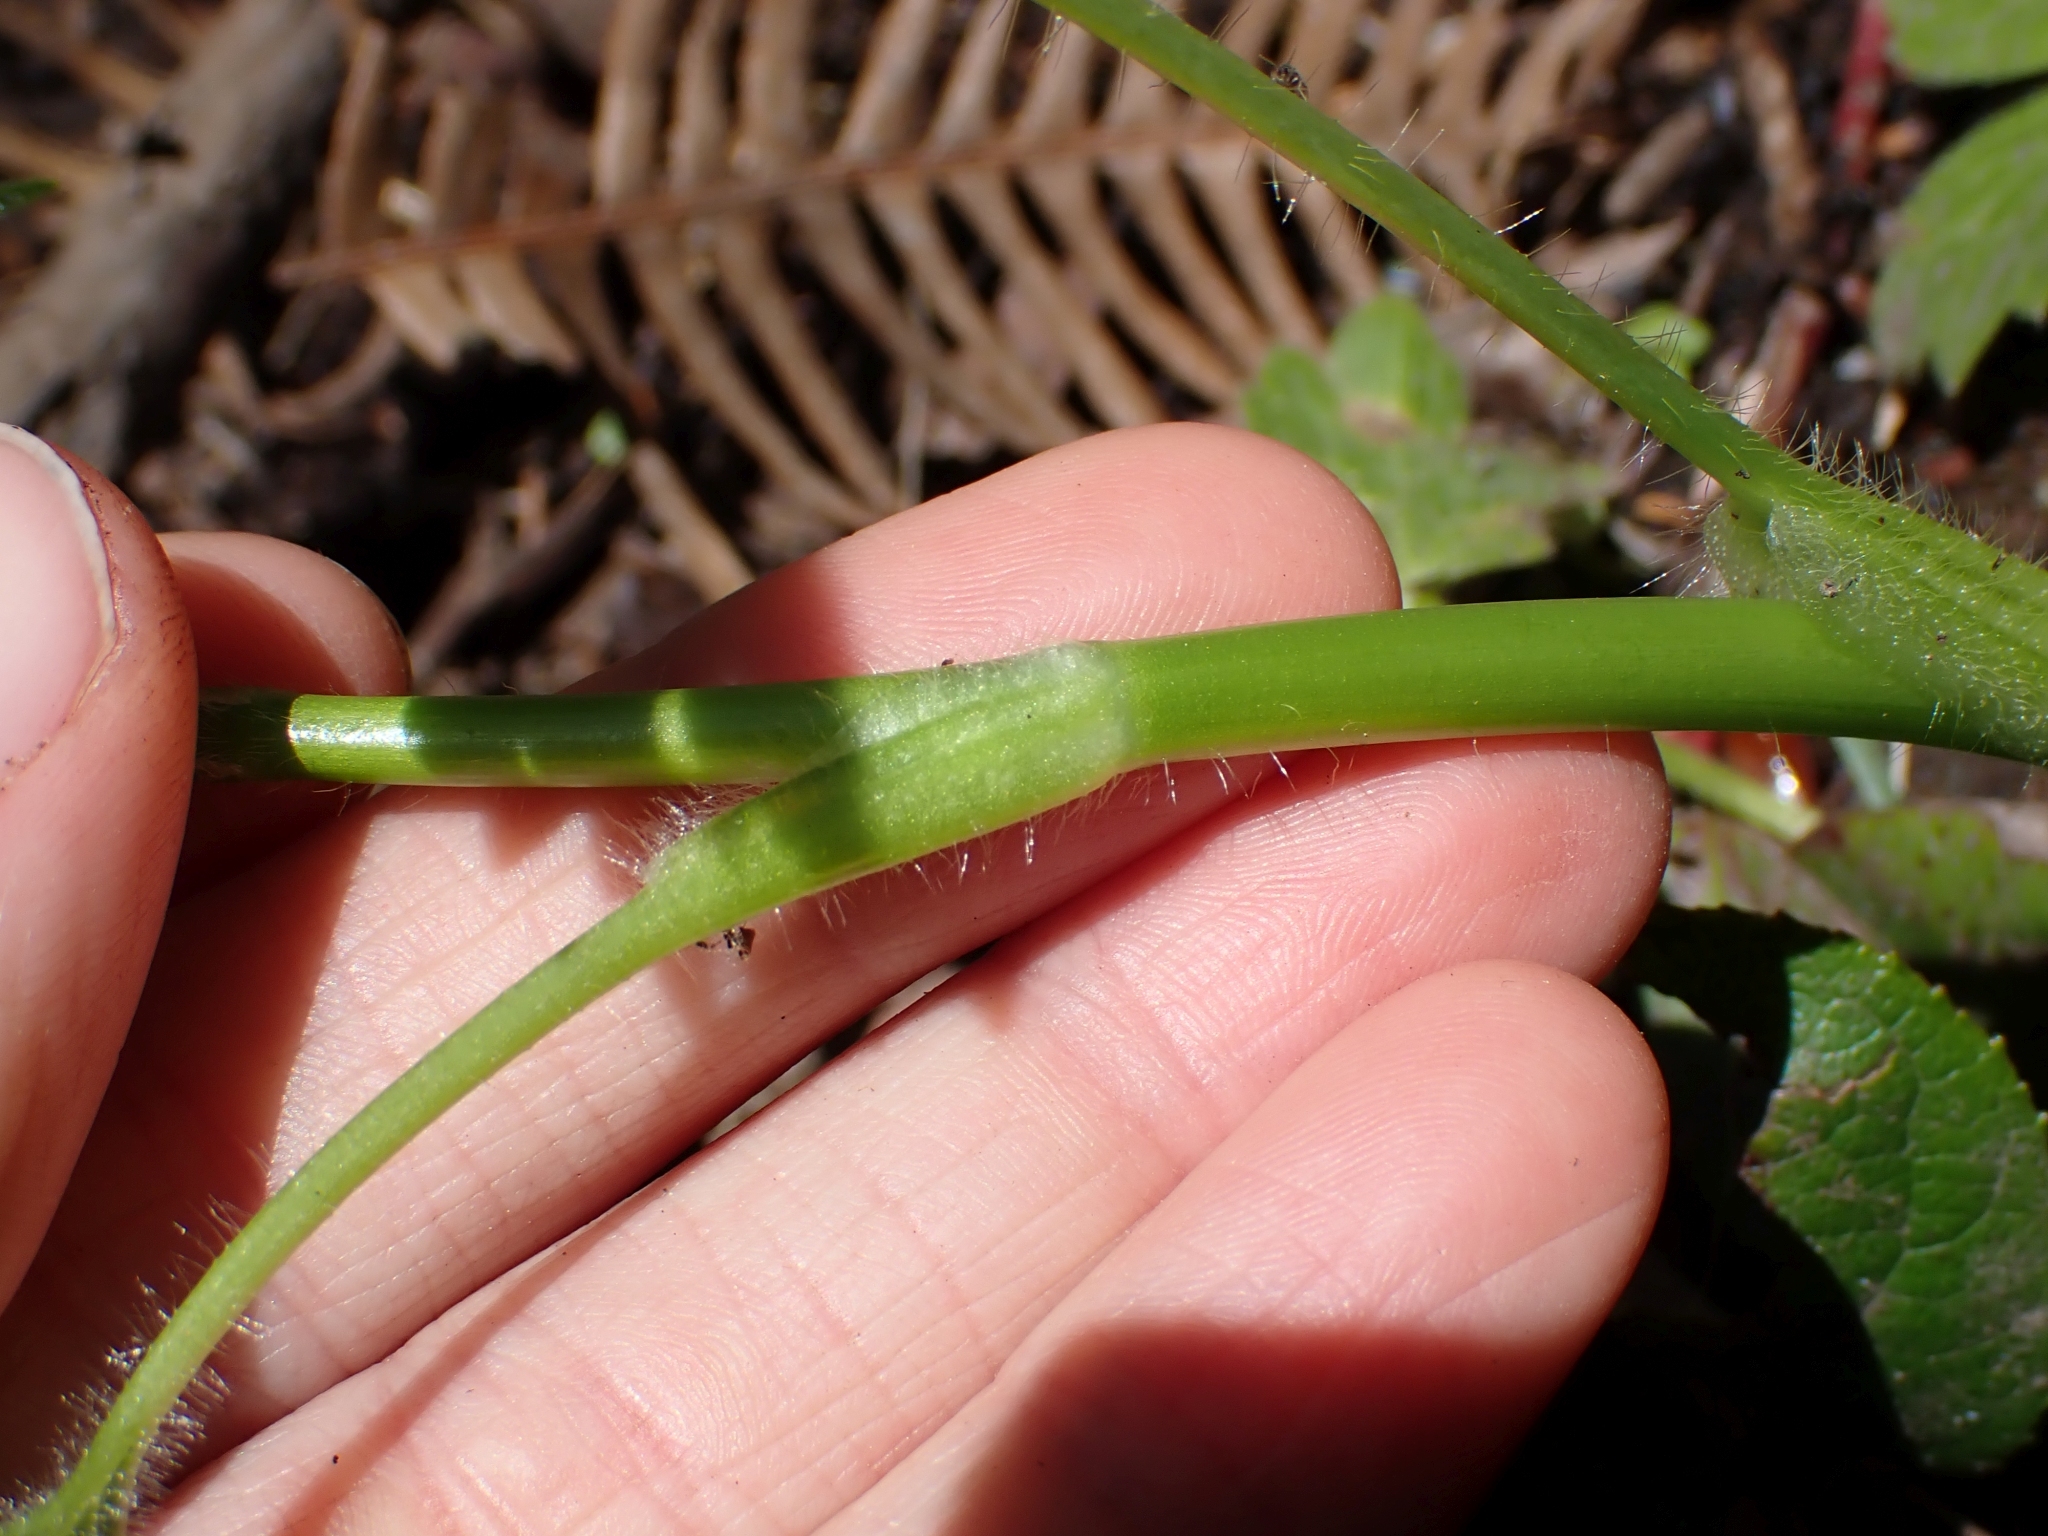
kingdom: Plantae
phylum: Tracheophyta
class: Magnoliopsida
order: Ranunculales
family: Ranunculaceae
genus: Ranunculus
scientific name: Ranunculus uncinatus
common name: Little buttercup
